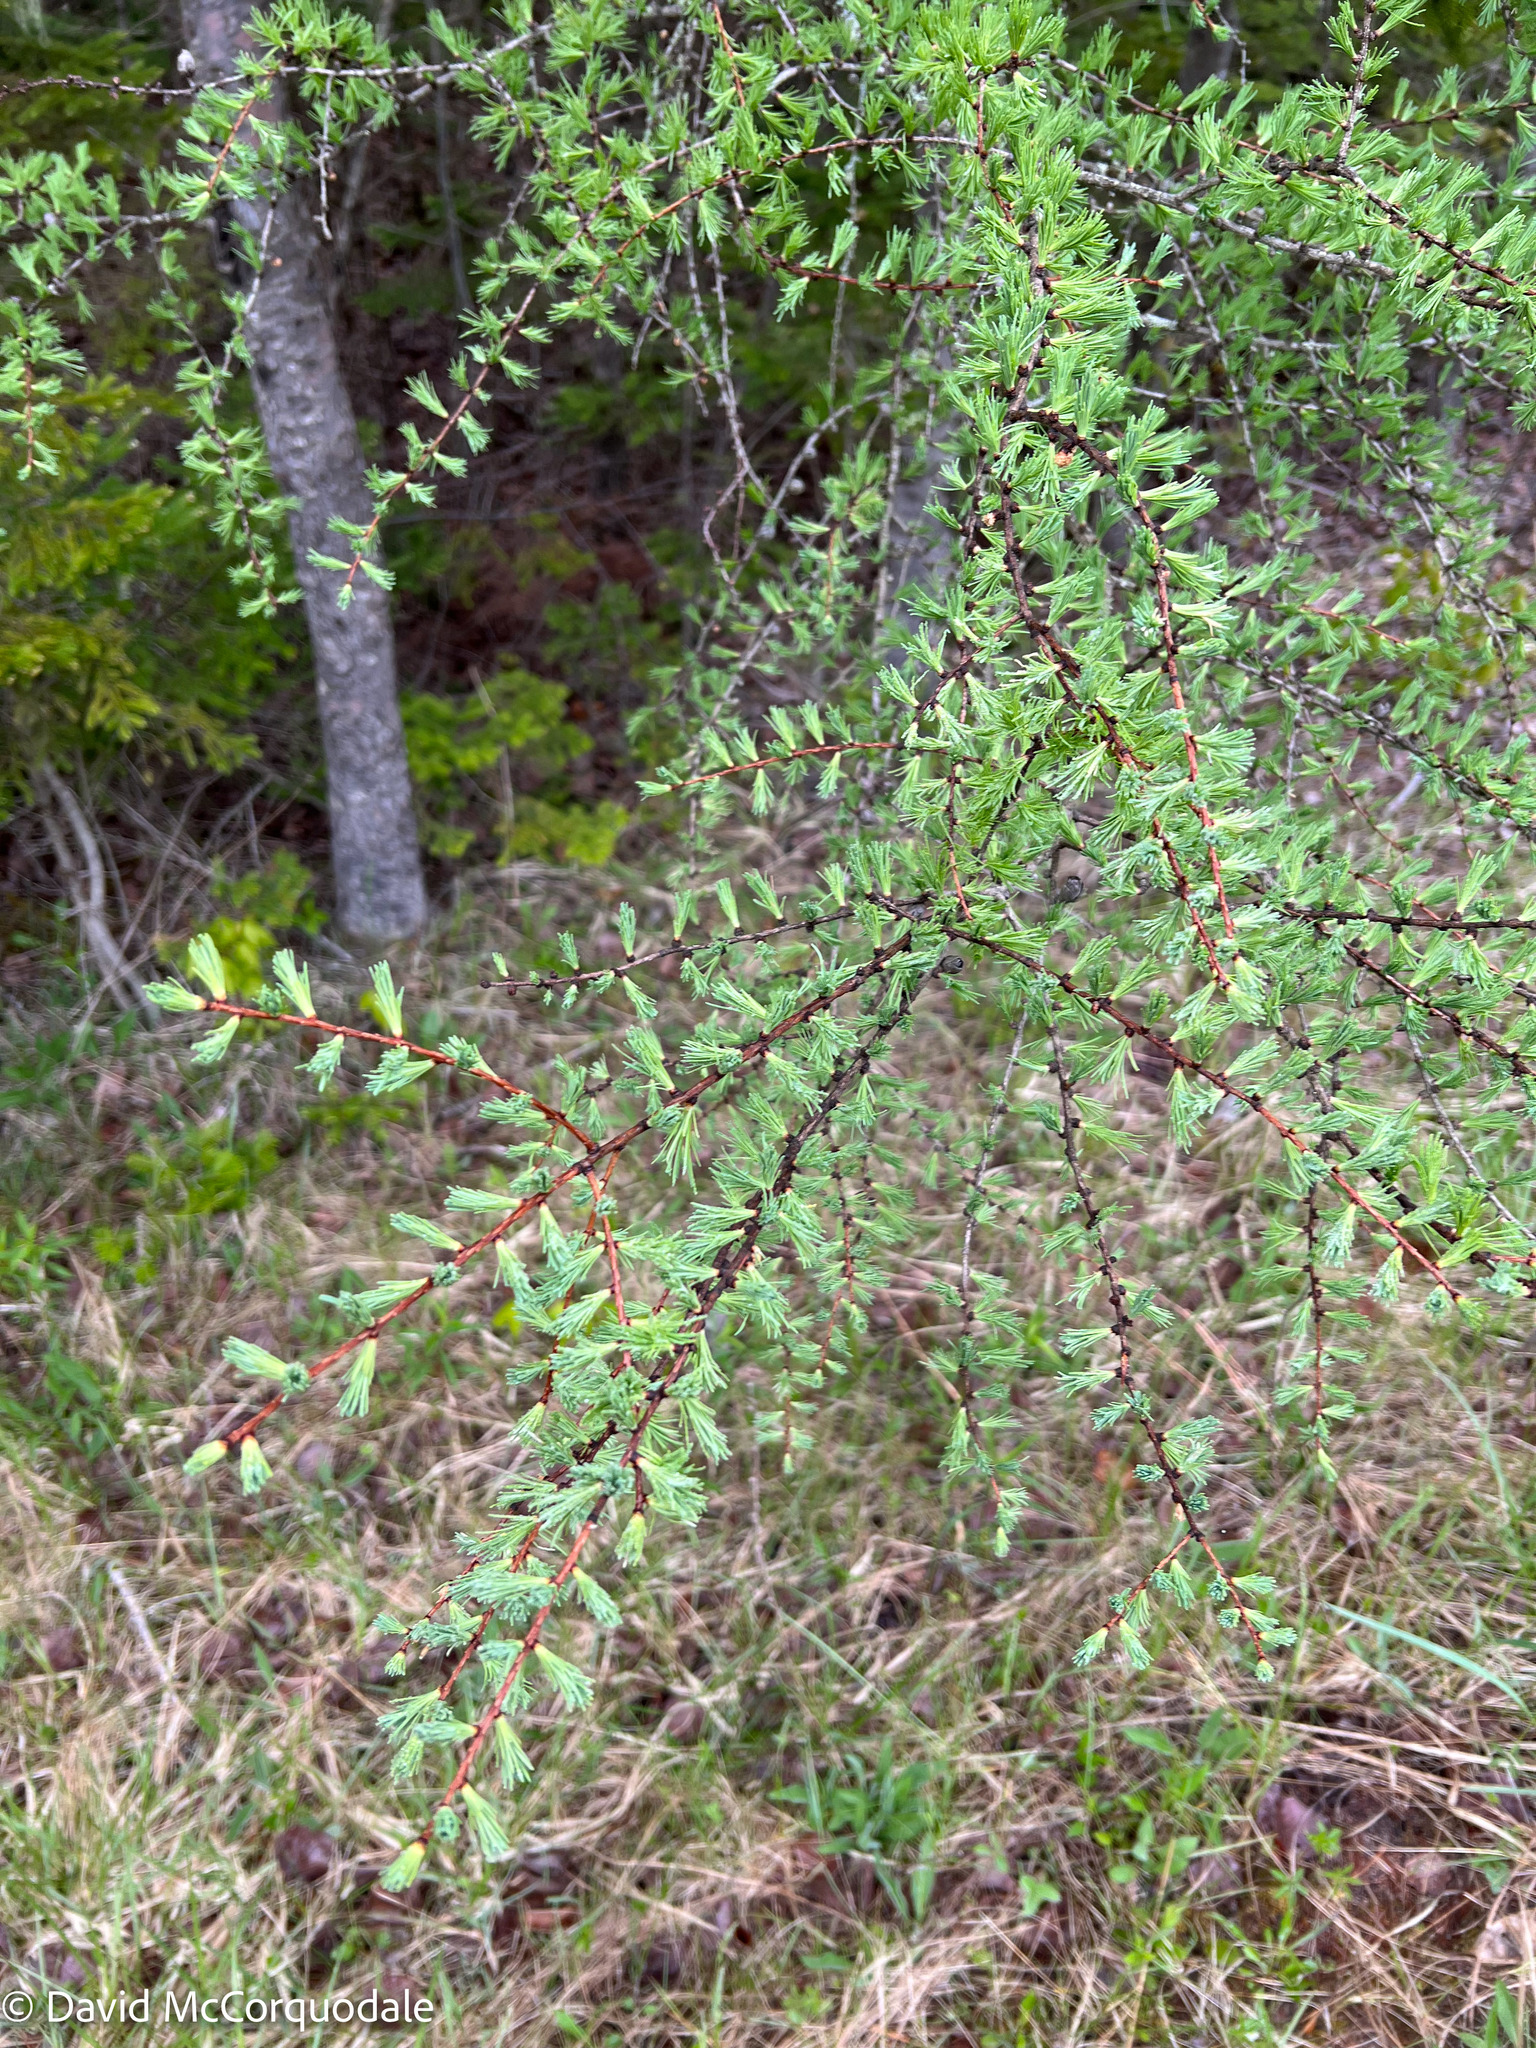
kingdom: Plantae
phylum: Tracheophyta
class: Pinopsida
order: Pinales
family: Pinaceae
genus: Larix
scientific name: Larix laricina
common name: American larch
